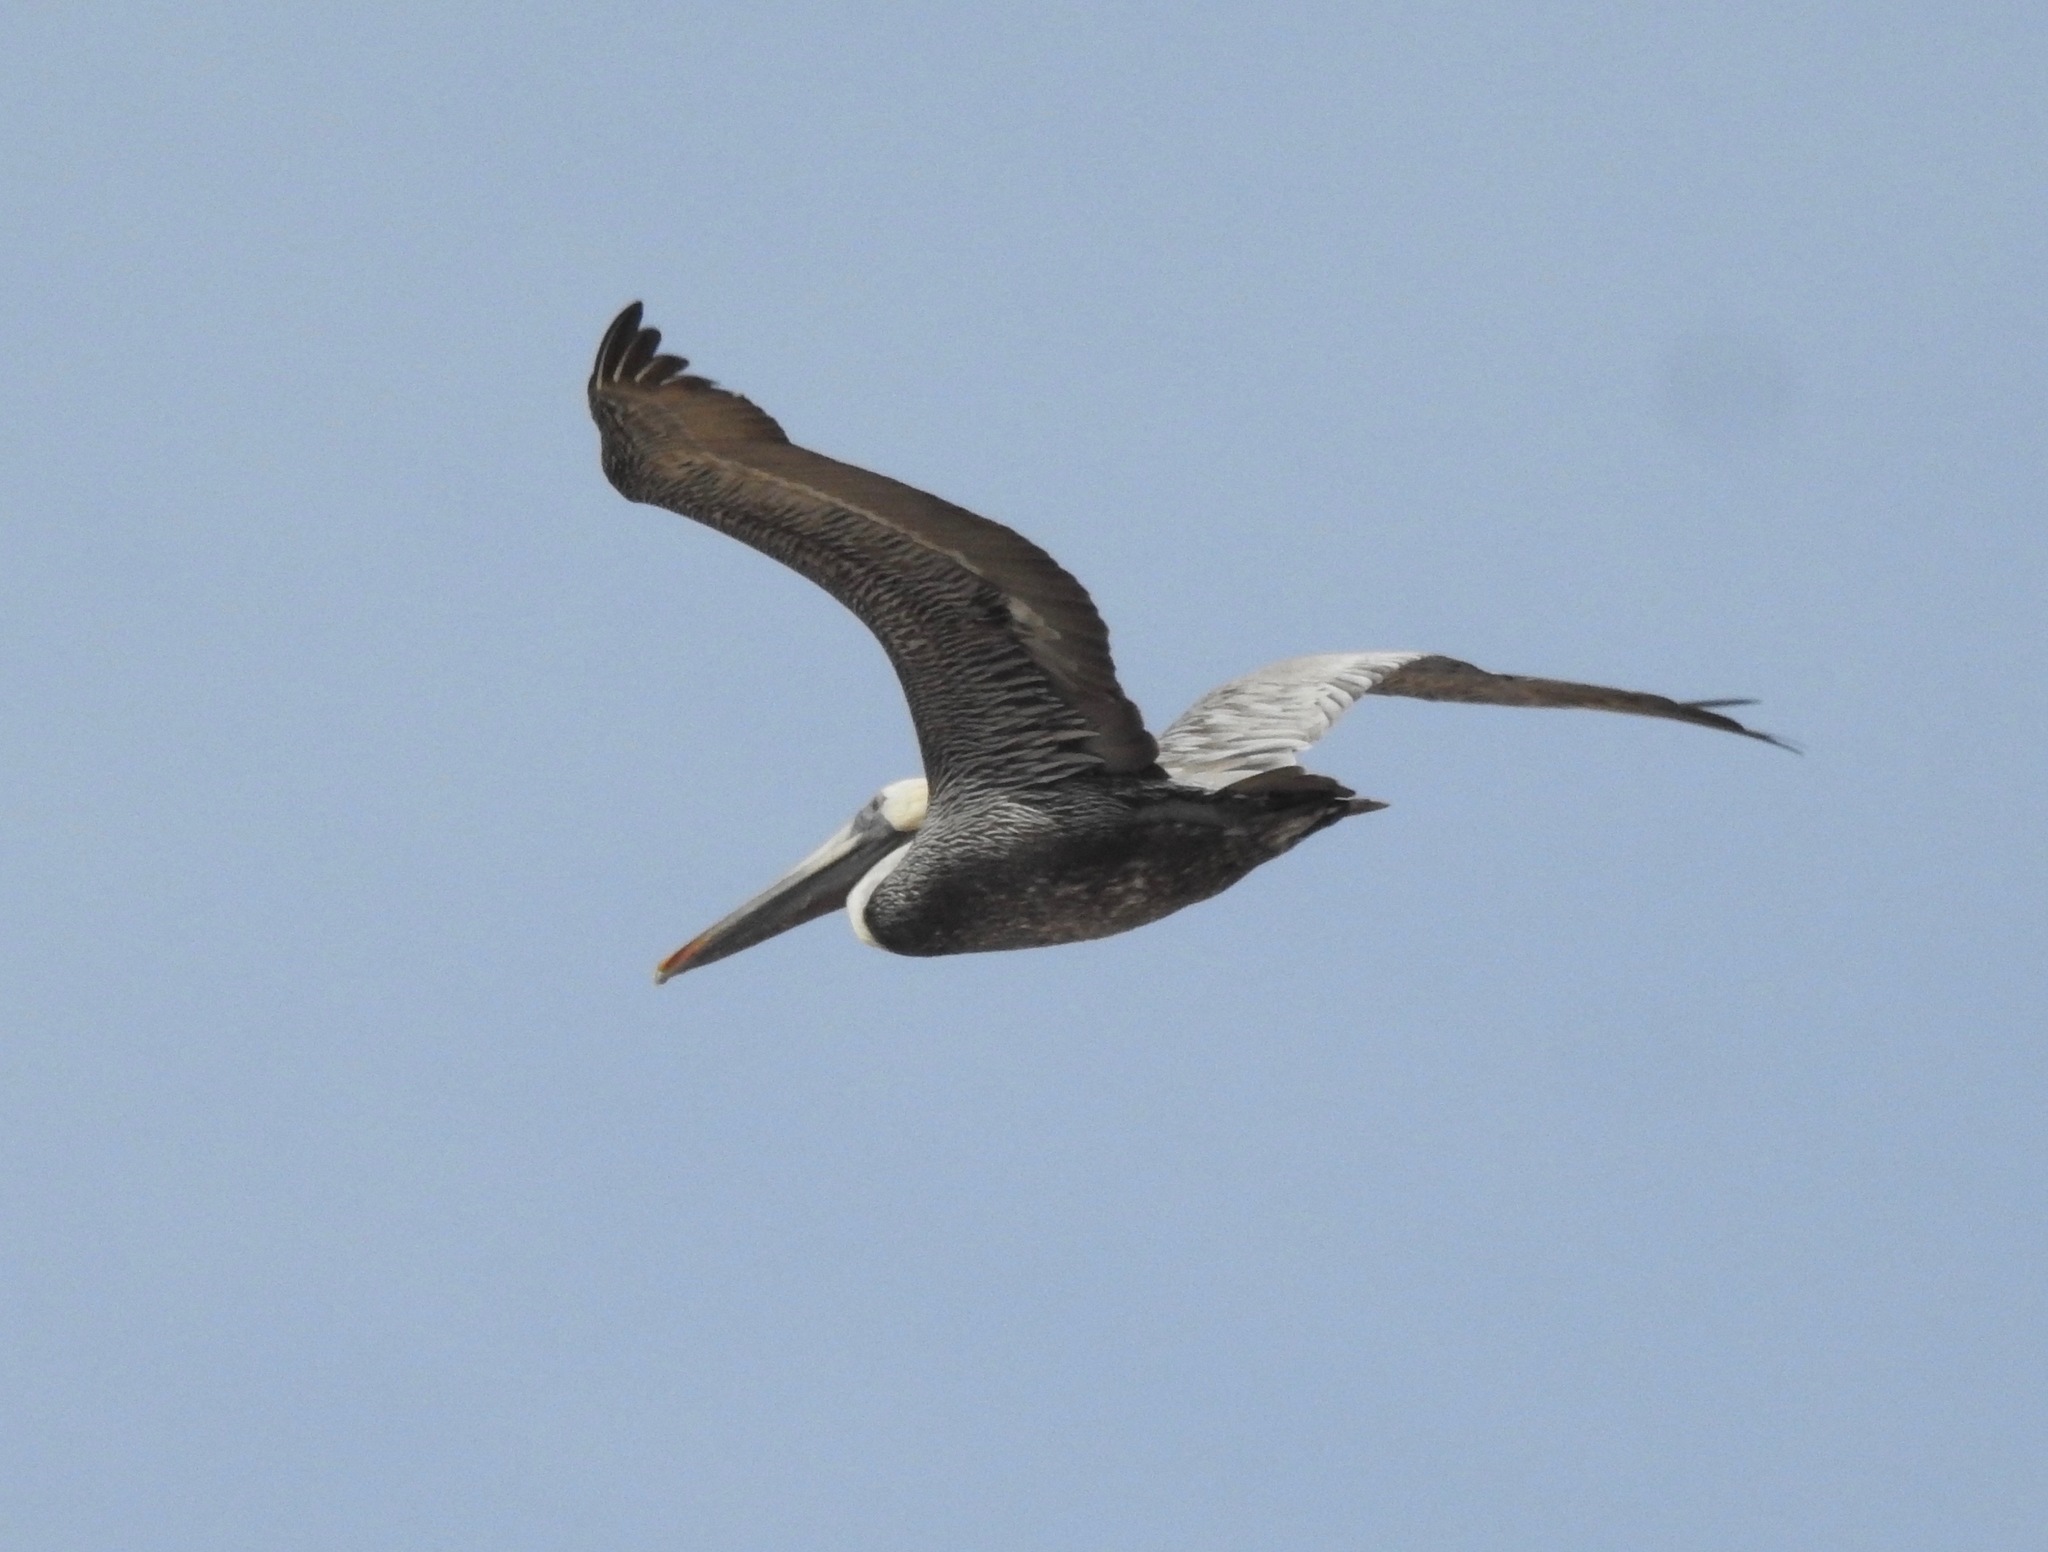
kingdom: Animalia
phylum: Chordata
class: Aves
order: Pelecaniformes
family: Pelecanidae
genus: Pelecanus
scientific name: Pelecanus occidentalis
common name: Brown pelican
